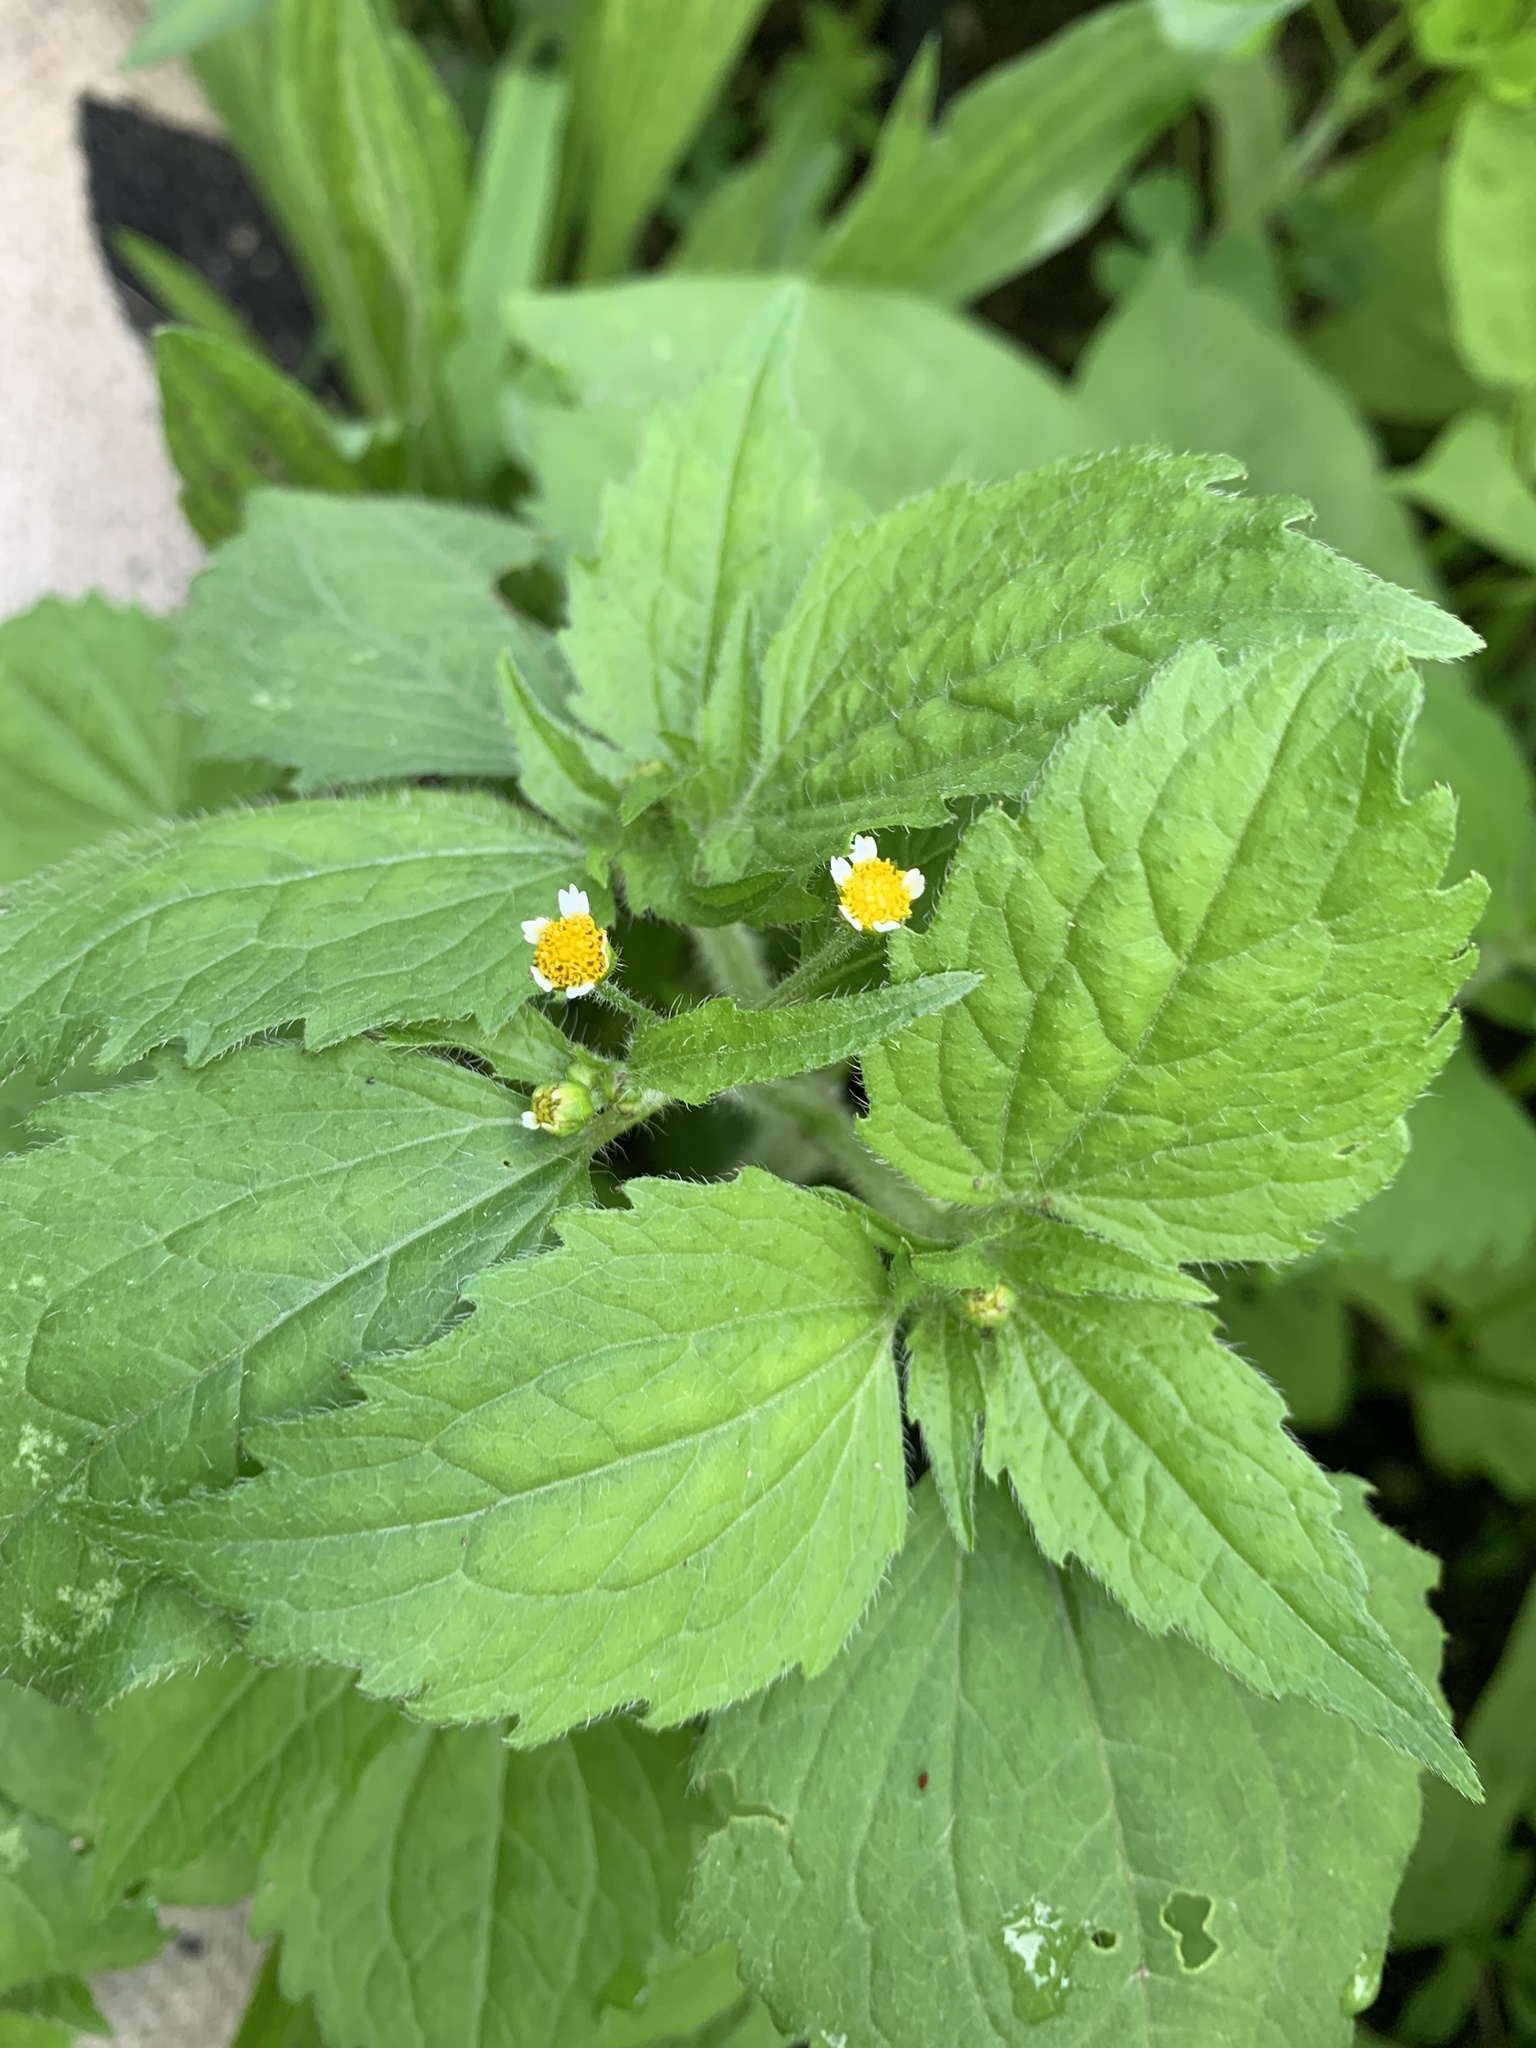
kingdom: Plantae
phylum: Tracheophyta
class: Magnoliopsida
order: Asterales
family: Asteraceae
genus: Galinsoga
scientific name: Galinsoga quadriradiata
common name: Shaggy soldier
